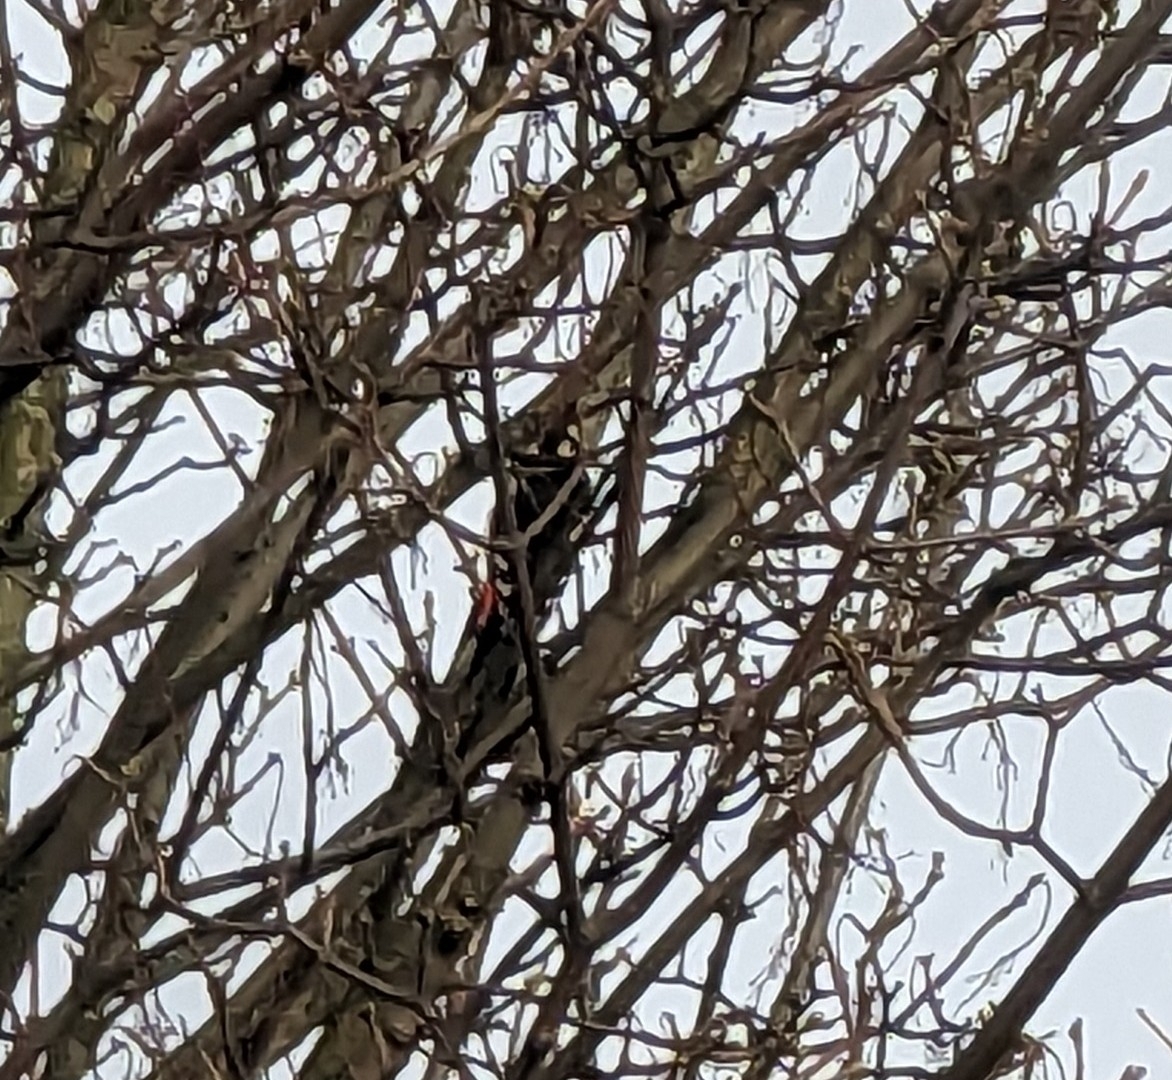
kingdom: Animalia
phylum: Chordata
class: Aves
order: Piciformes
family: Picidae
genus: Dendrocopos
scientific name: Dendrocopos major
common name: Great spotted woodpecker
